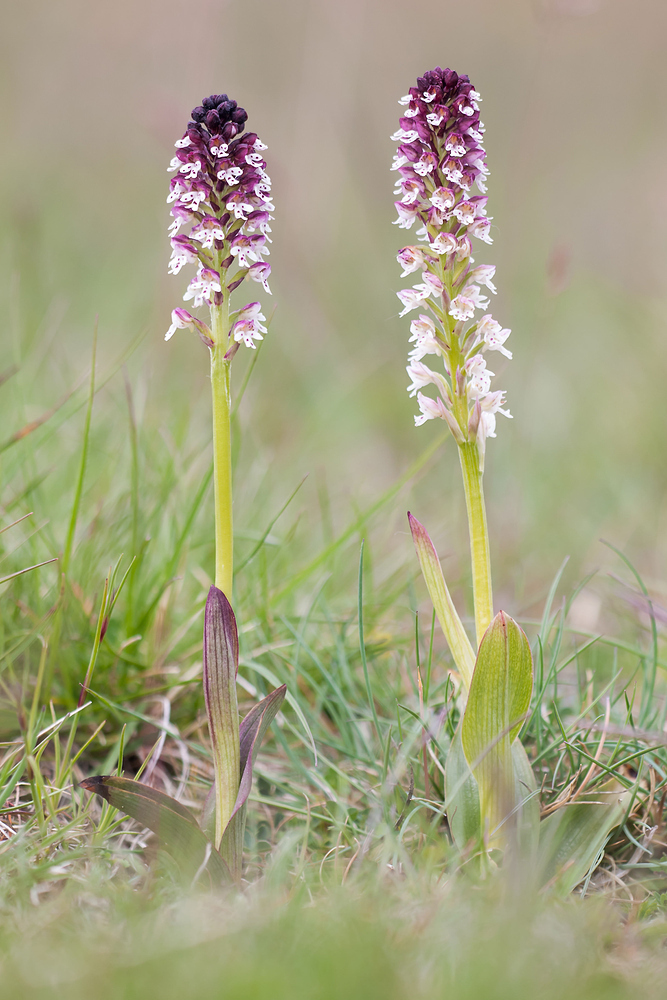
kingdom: Plantae
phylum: Tracheophyta
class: Liliopsida
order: Asparagales
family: Orchidaceae
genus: Neotinea
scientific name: Neotinea ustulata
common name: Burnt orchid
